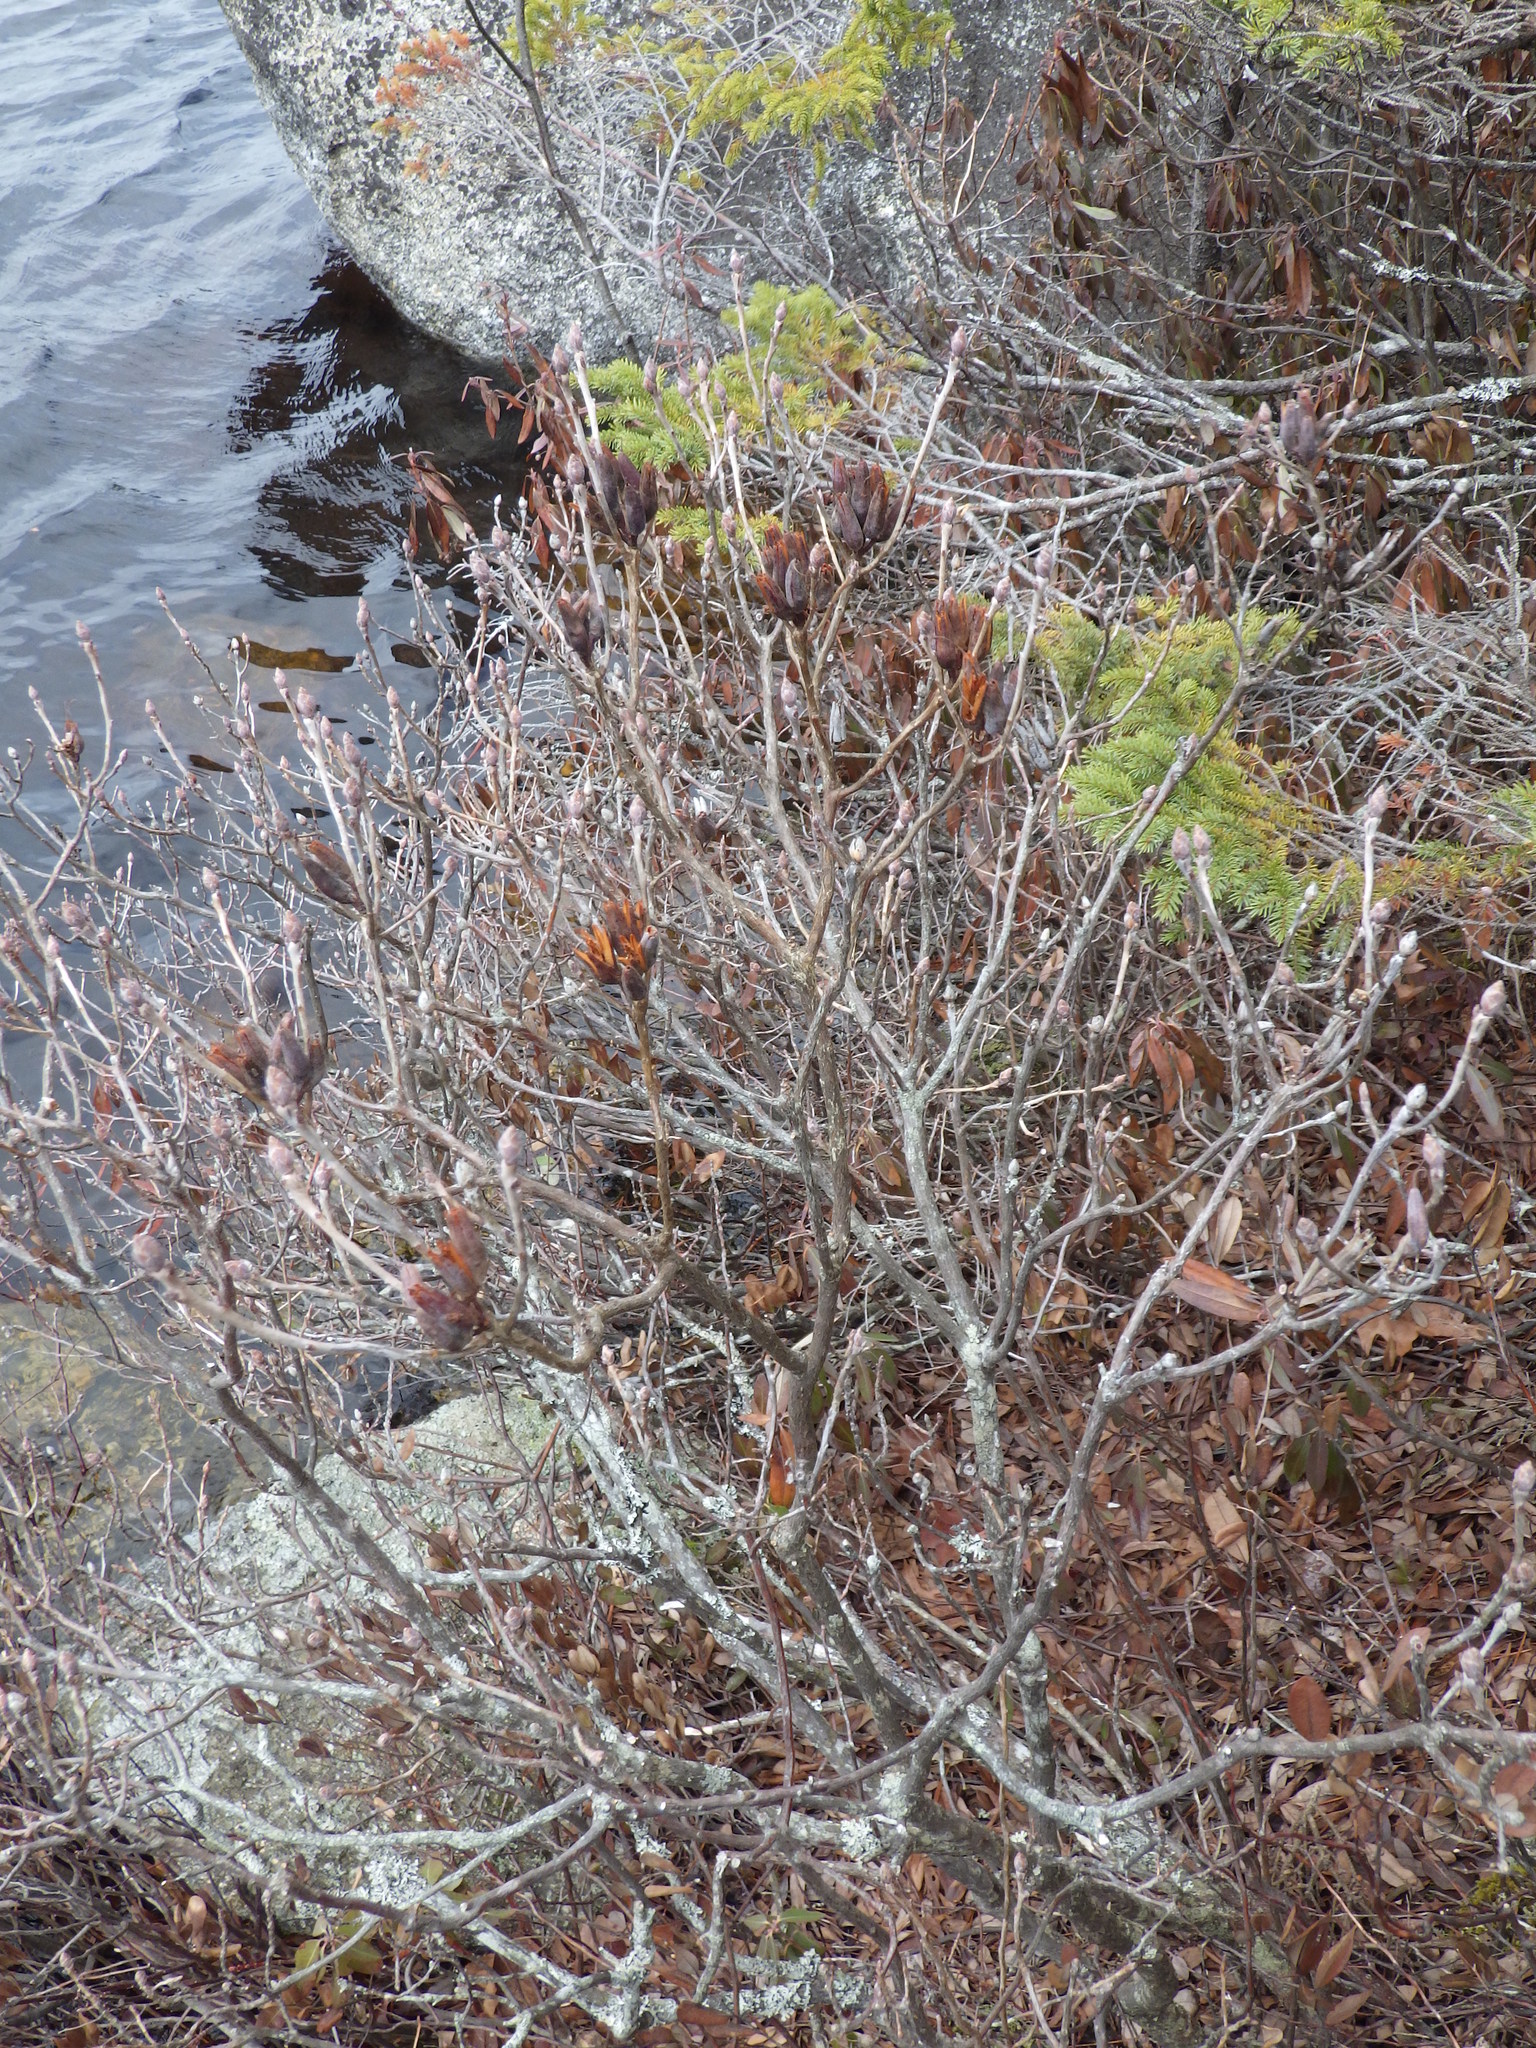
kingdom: Plantae
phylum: Tracheophyta
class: Magnoliopsida
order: Ericales
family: Ericaceae
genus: Rhododendron
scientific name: Rhododendron canadense
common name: Rhodora
